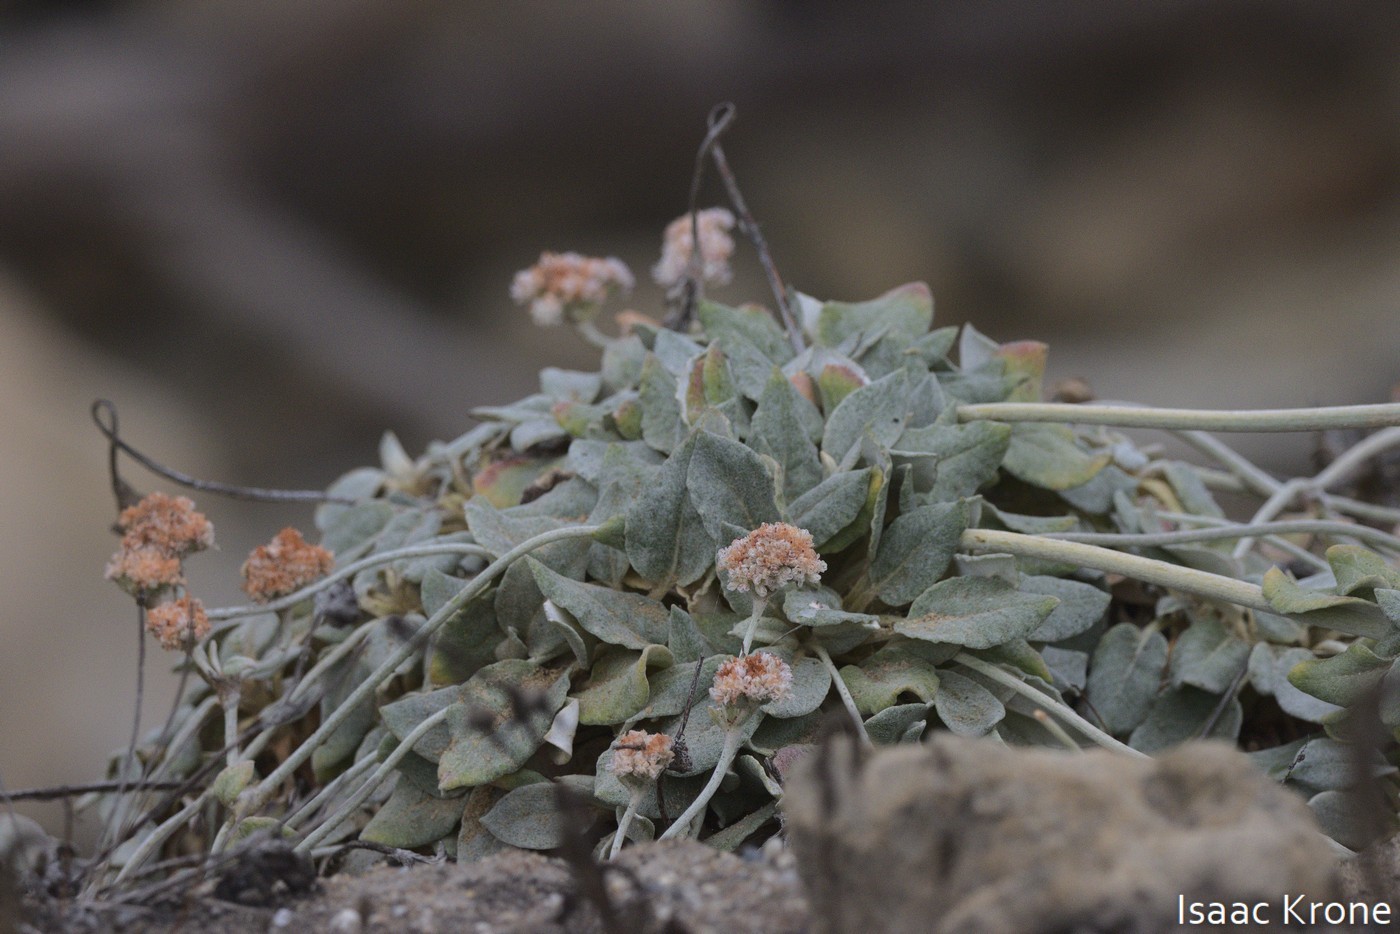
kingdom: Plantae
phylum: Tracheophyta
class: Magnoliopsida
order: Caryophyllales
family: Polygonaceae
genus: Eriogonum
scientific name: Eriogonum latifolium
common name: Seaside wild buckwheat
